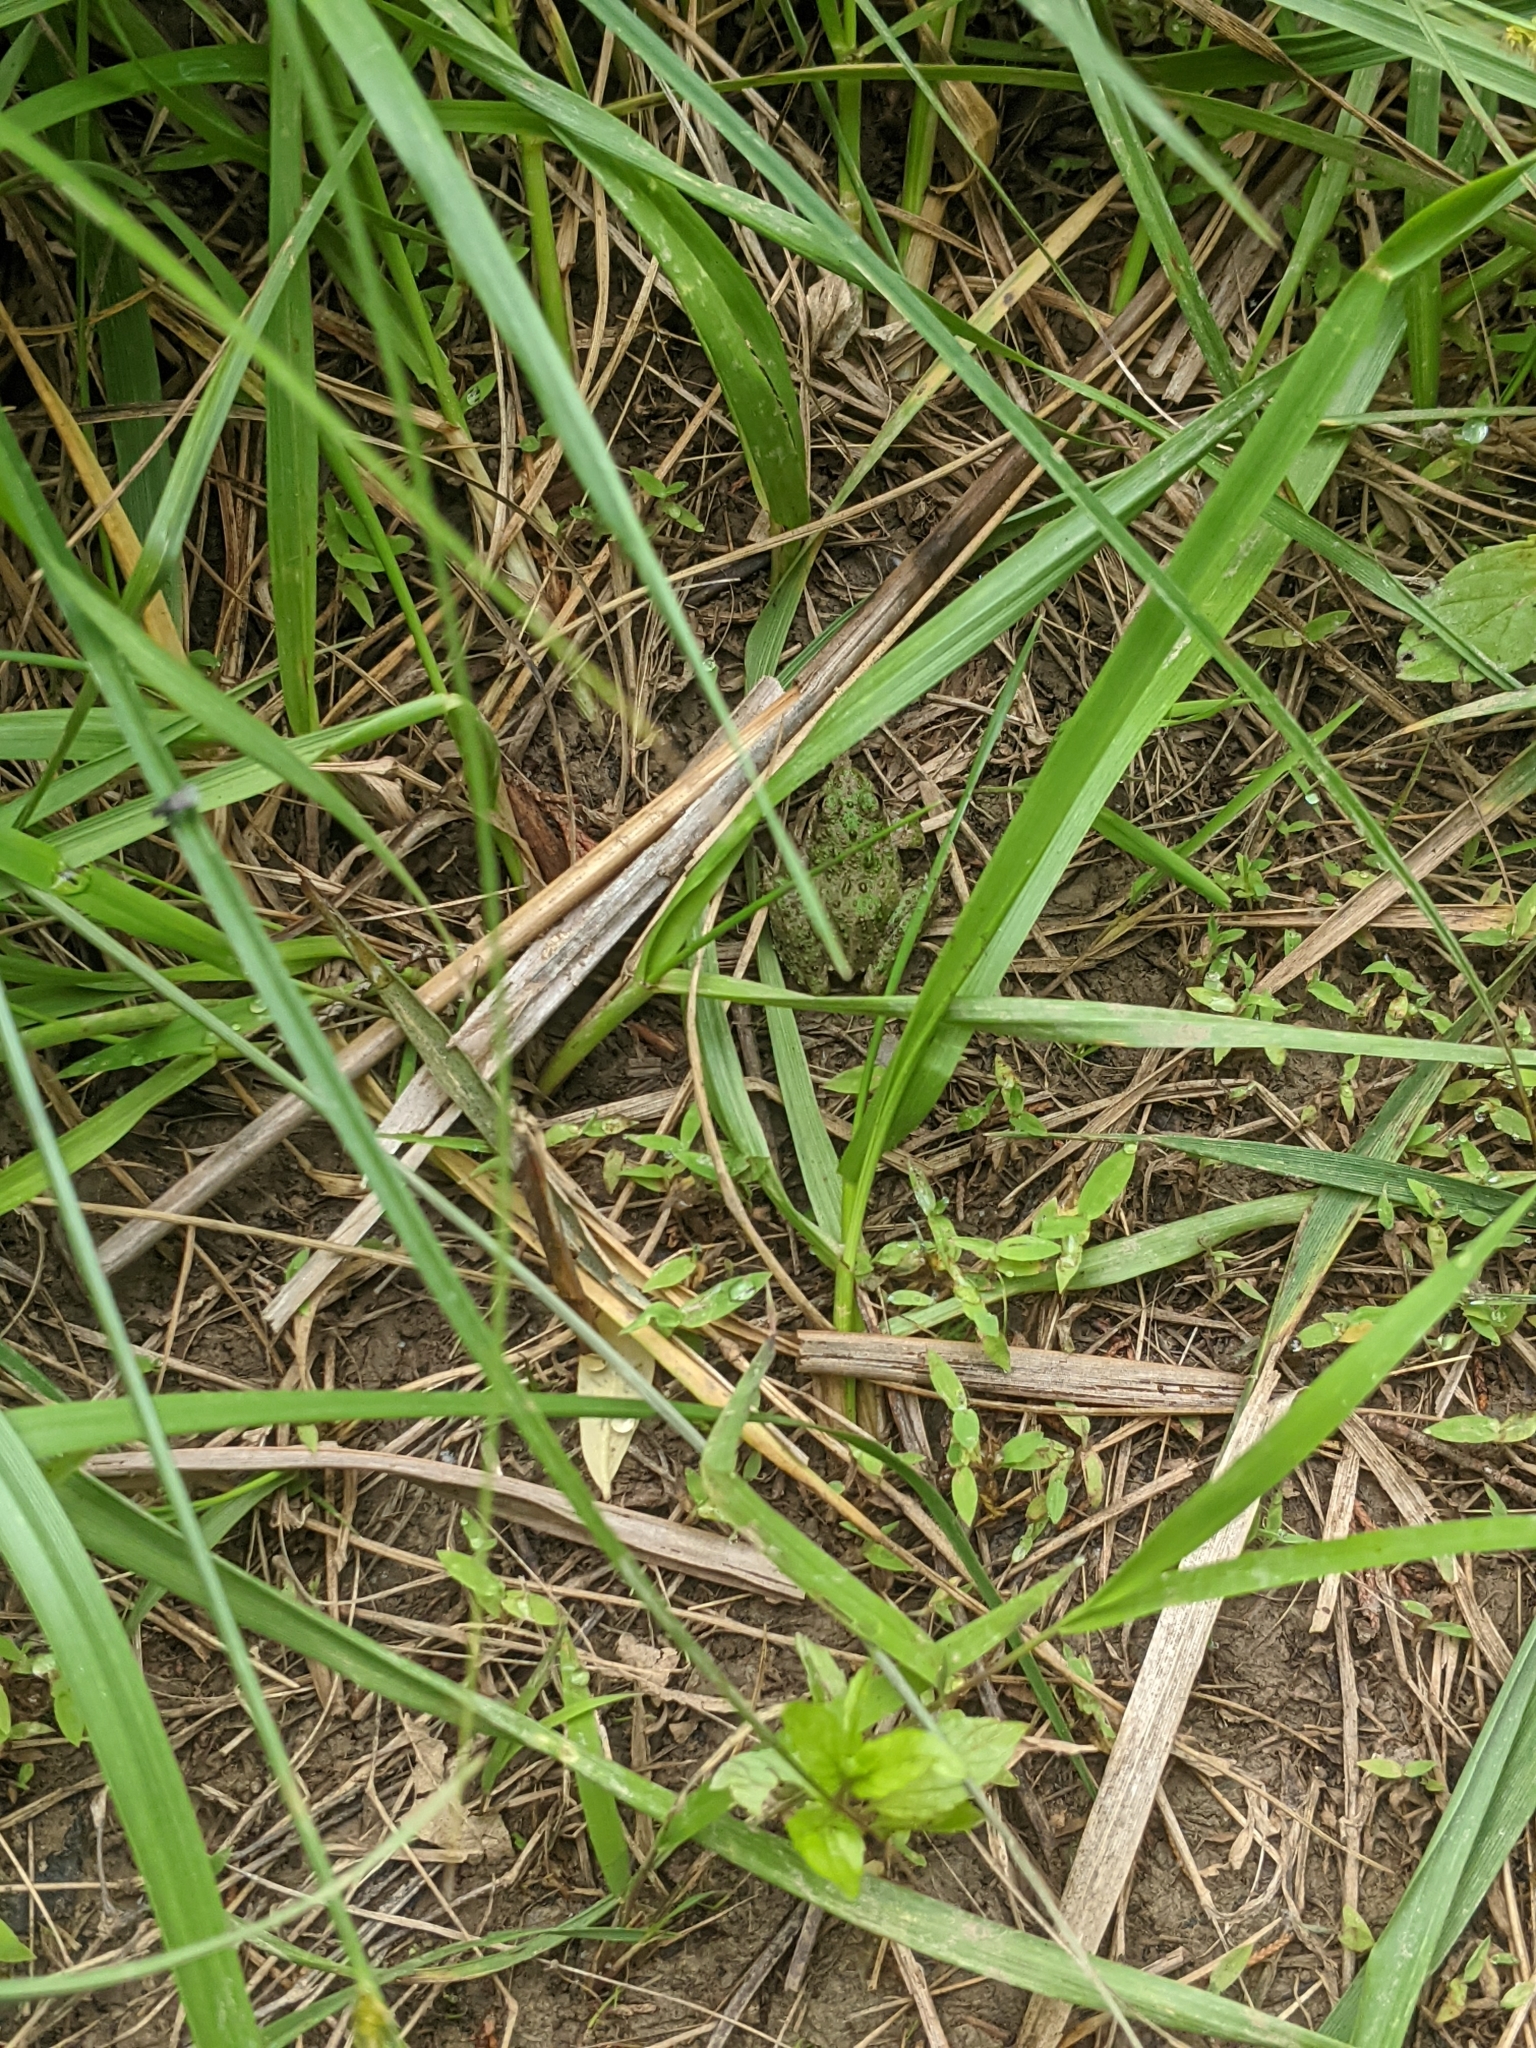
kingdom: Animalia
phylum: Chordata
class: Amphibia
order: Anura
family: Hylidae
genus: Acris
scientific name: Acris crepitans
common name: Northern cricket frog
